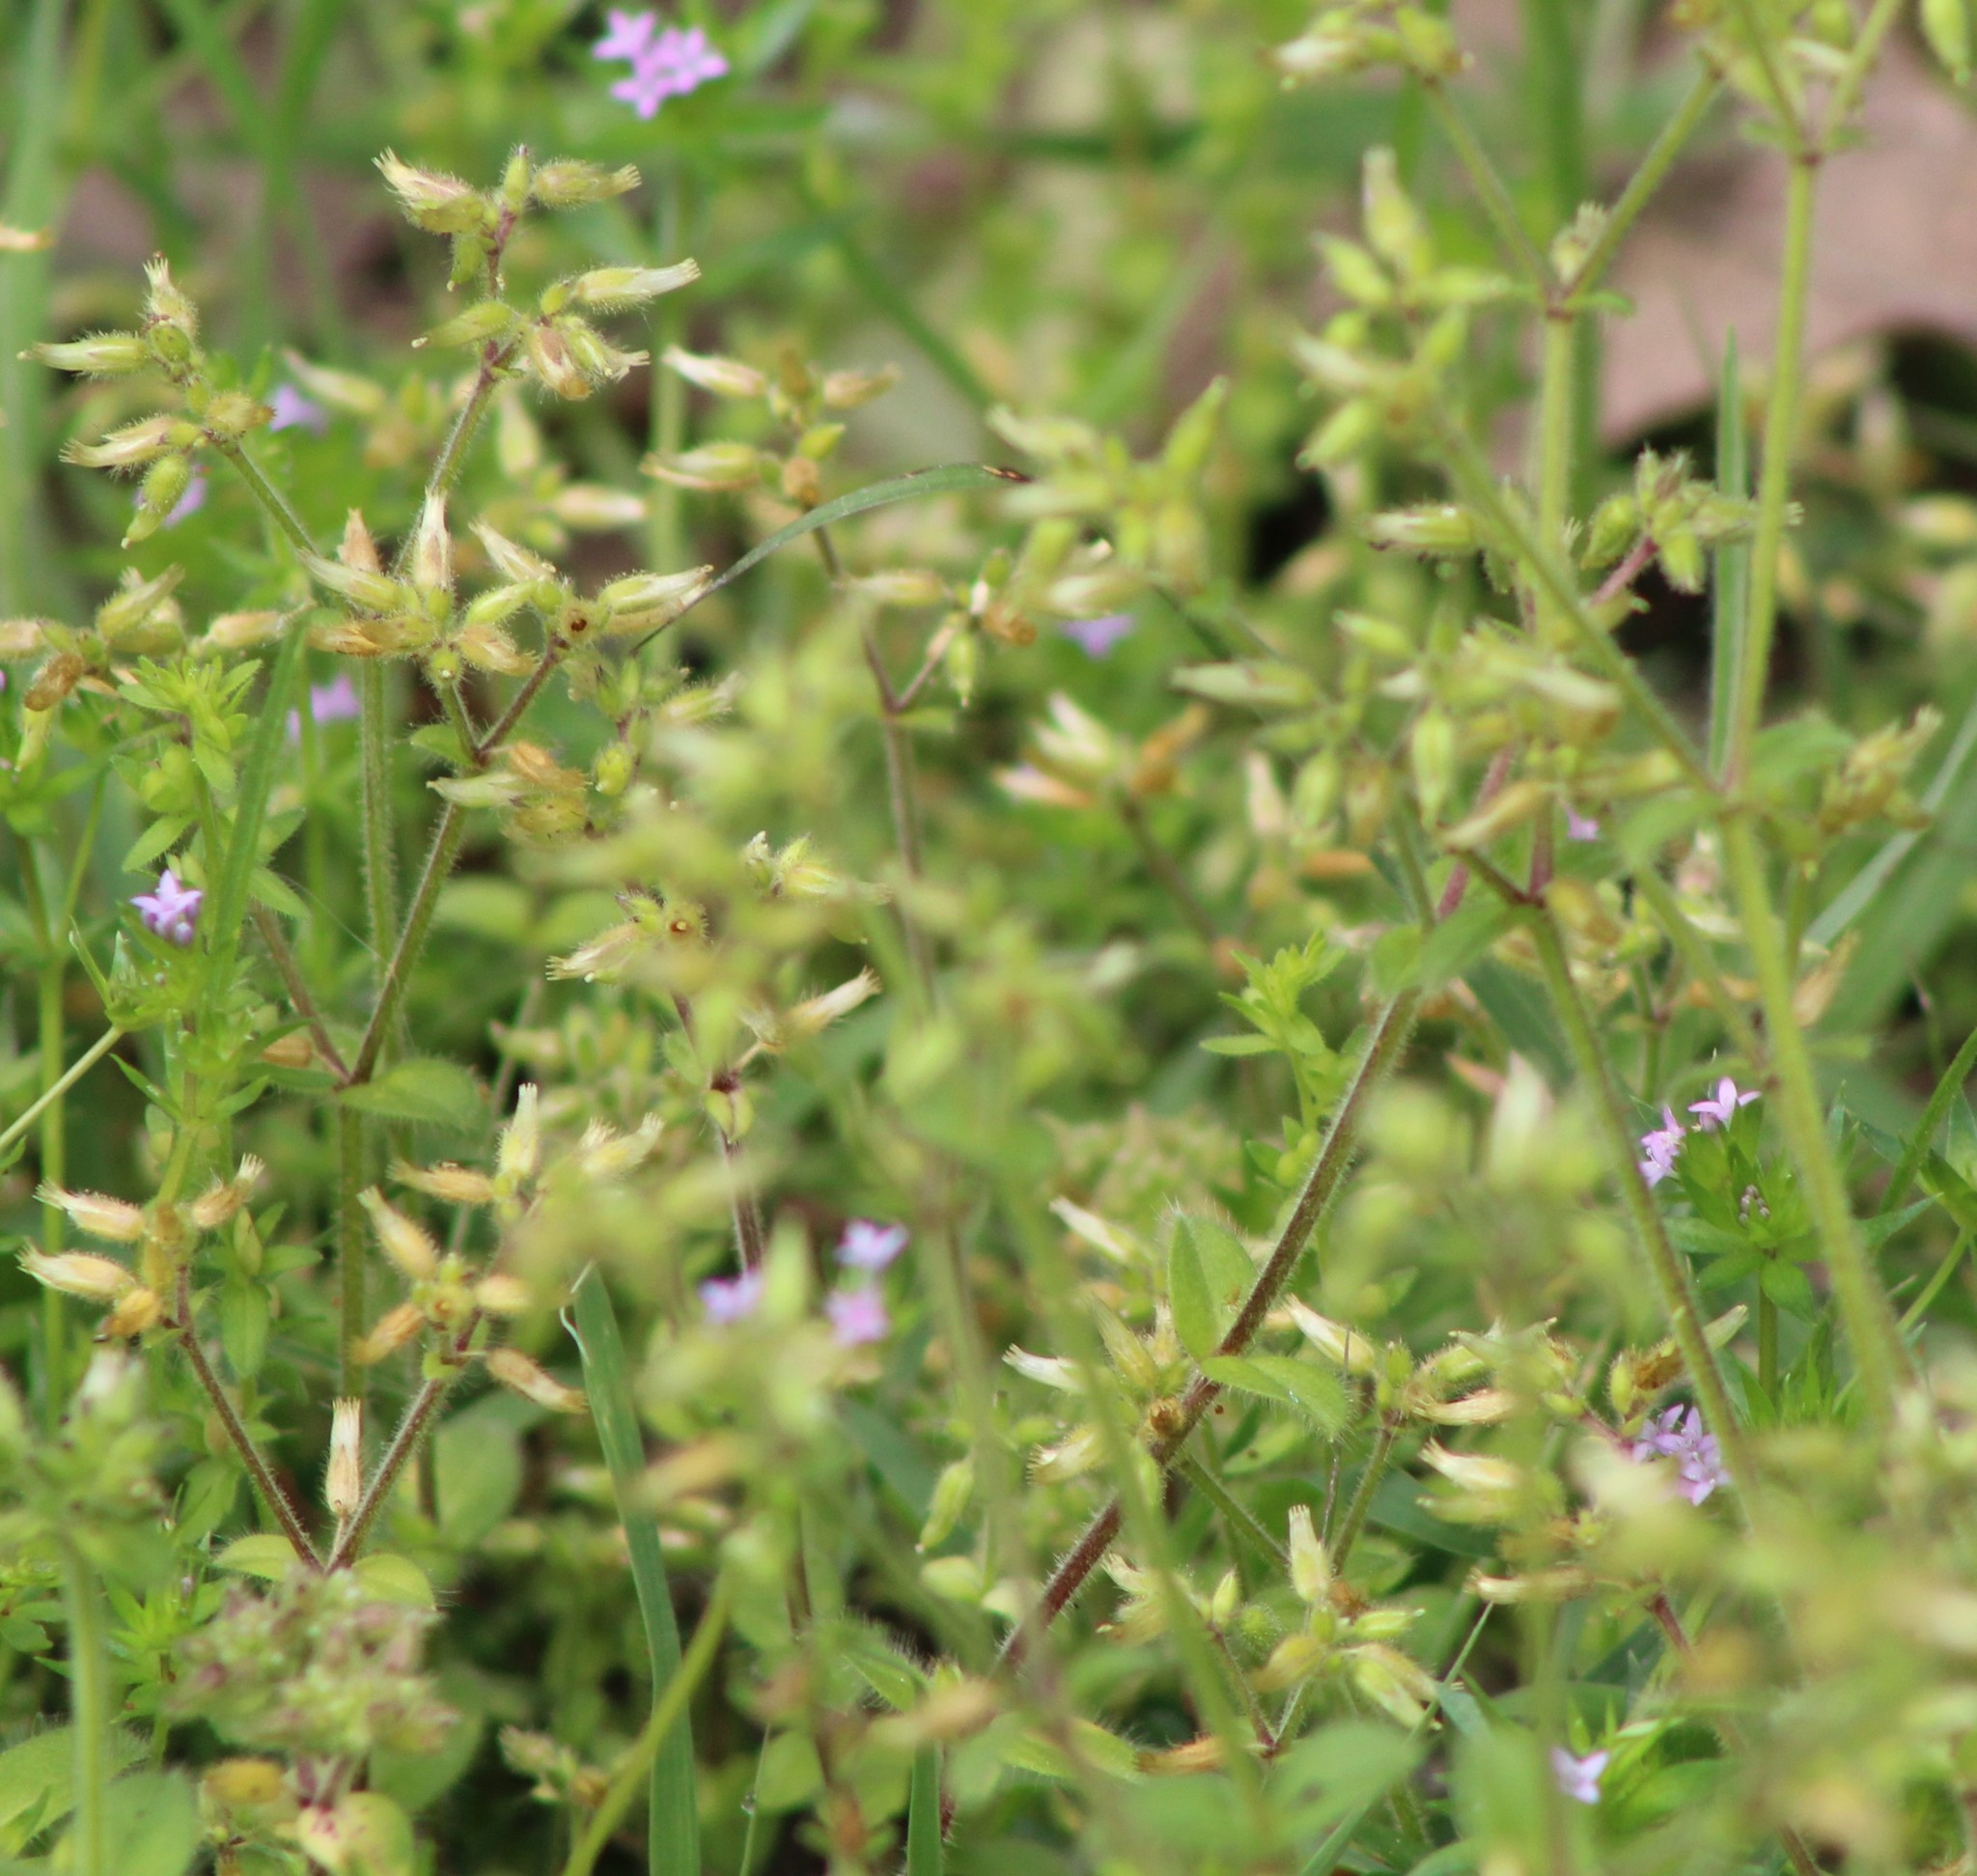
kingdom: Plantae
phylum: Tracheophyta
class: Magnoliopsida
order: Caryophyllales
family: Caryophyllaceae
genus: Cerastium
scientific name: Cerastium glomeratum
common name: Sticky chickweed
